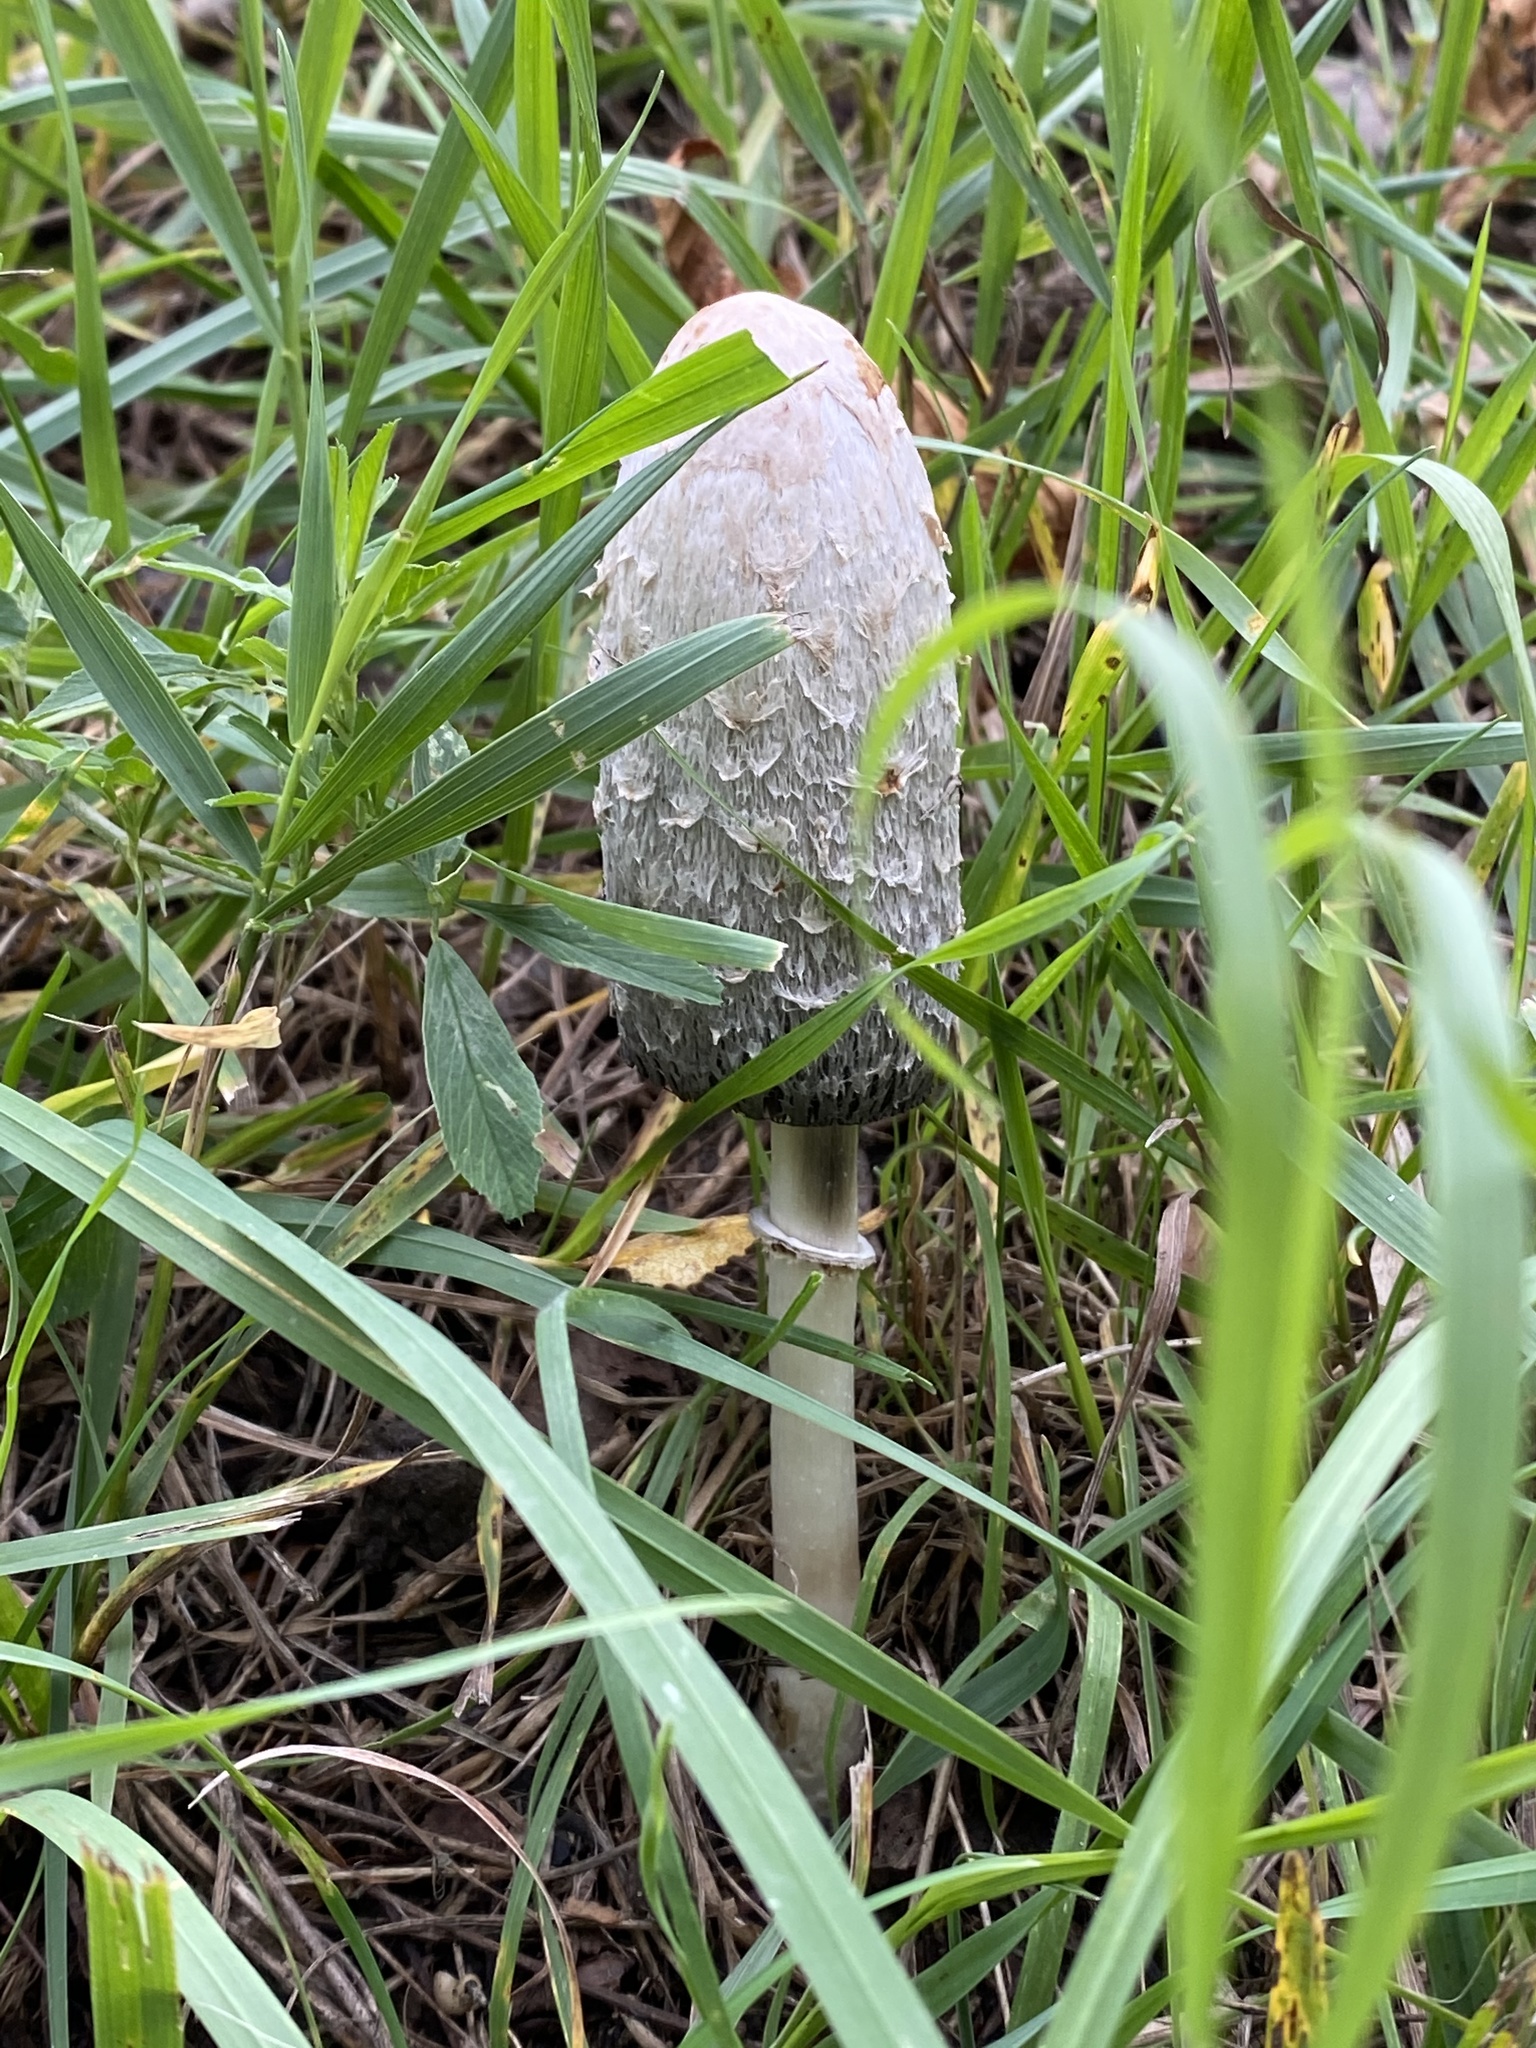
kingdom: Fungi
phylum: Basidiomycota
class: Agaricomycetes
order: Agaricales
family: Agaricaceae
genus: Coprinus
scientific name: Coprinus comatus
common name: Lawyer's wig
